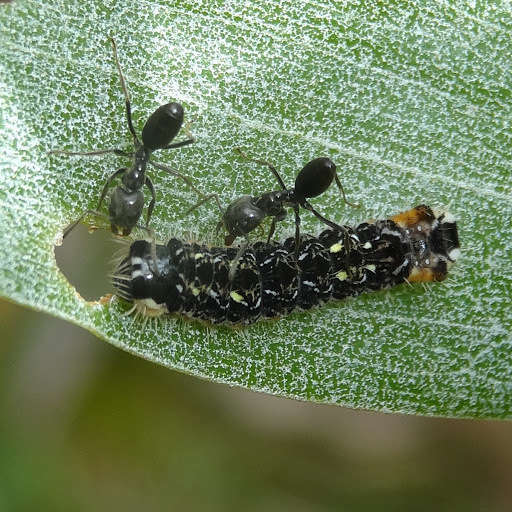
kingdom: Animalia
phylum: Arthropoda
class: Insecta
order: Lepidoptera
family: Lycaenidae
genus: Pseudalmenus
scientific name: Pseudalmenus chlorinda
